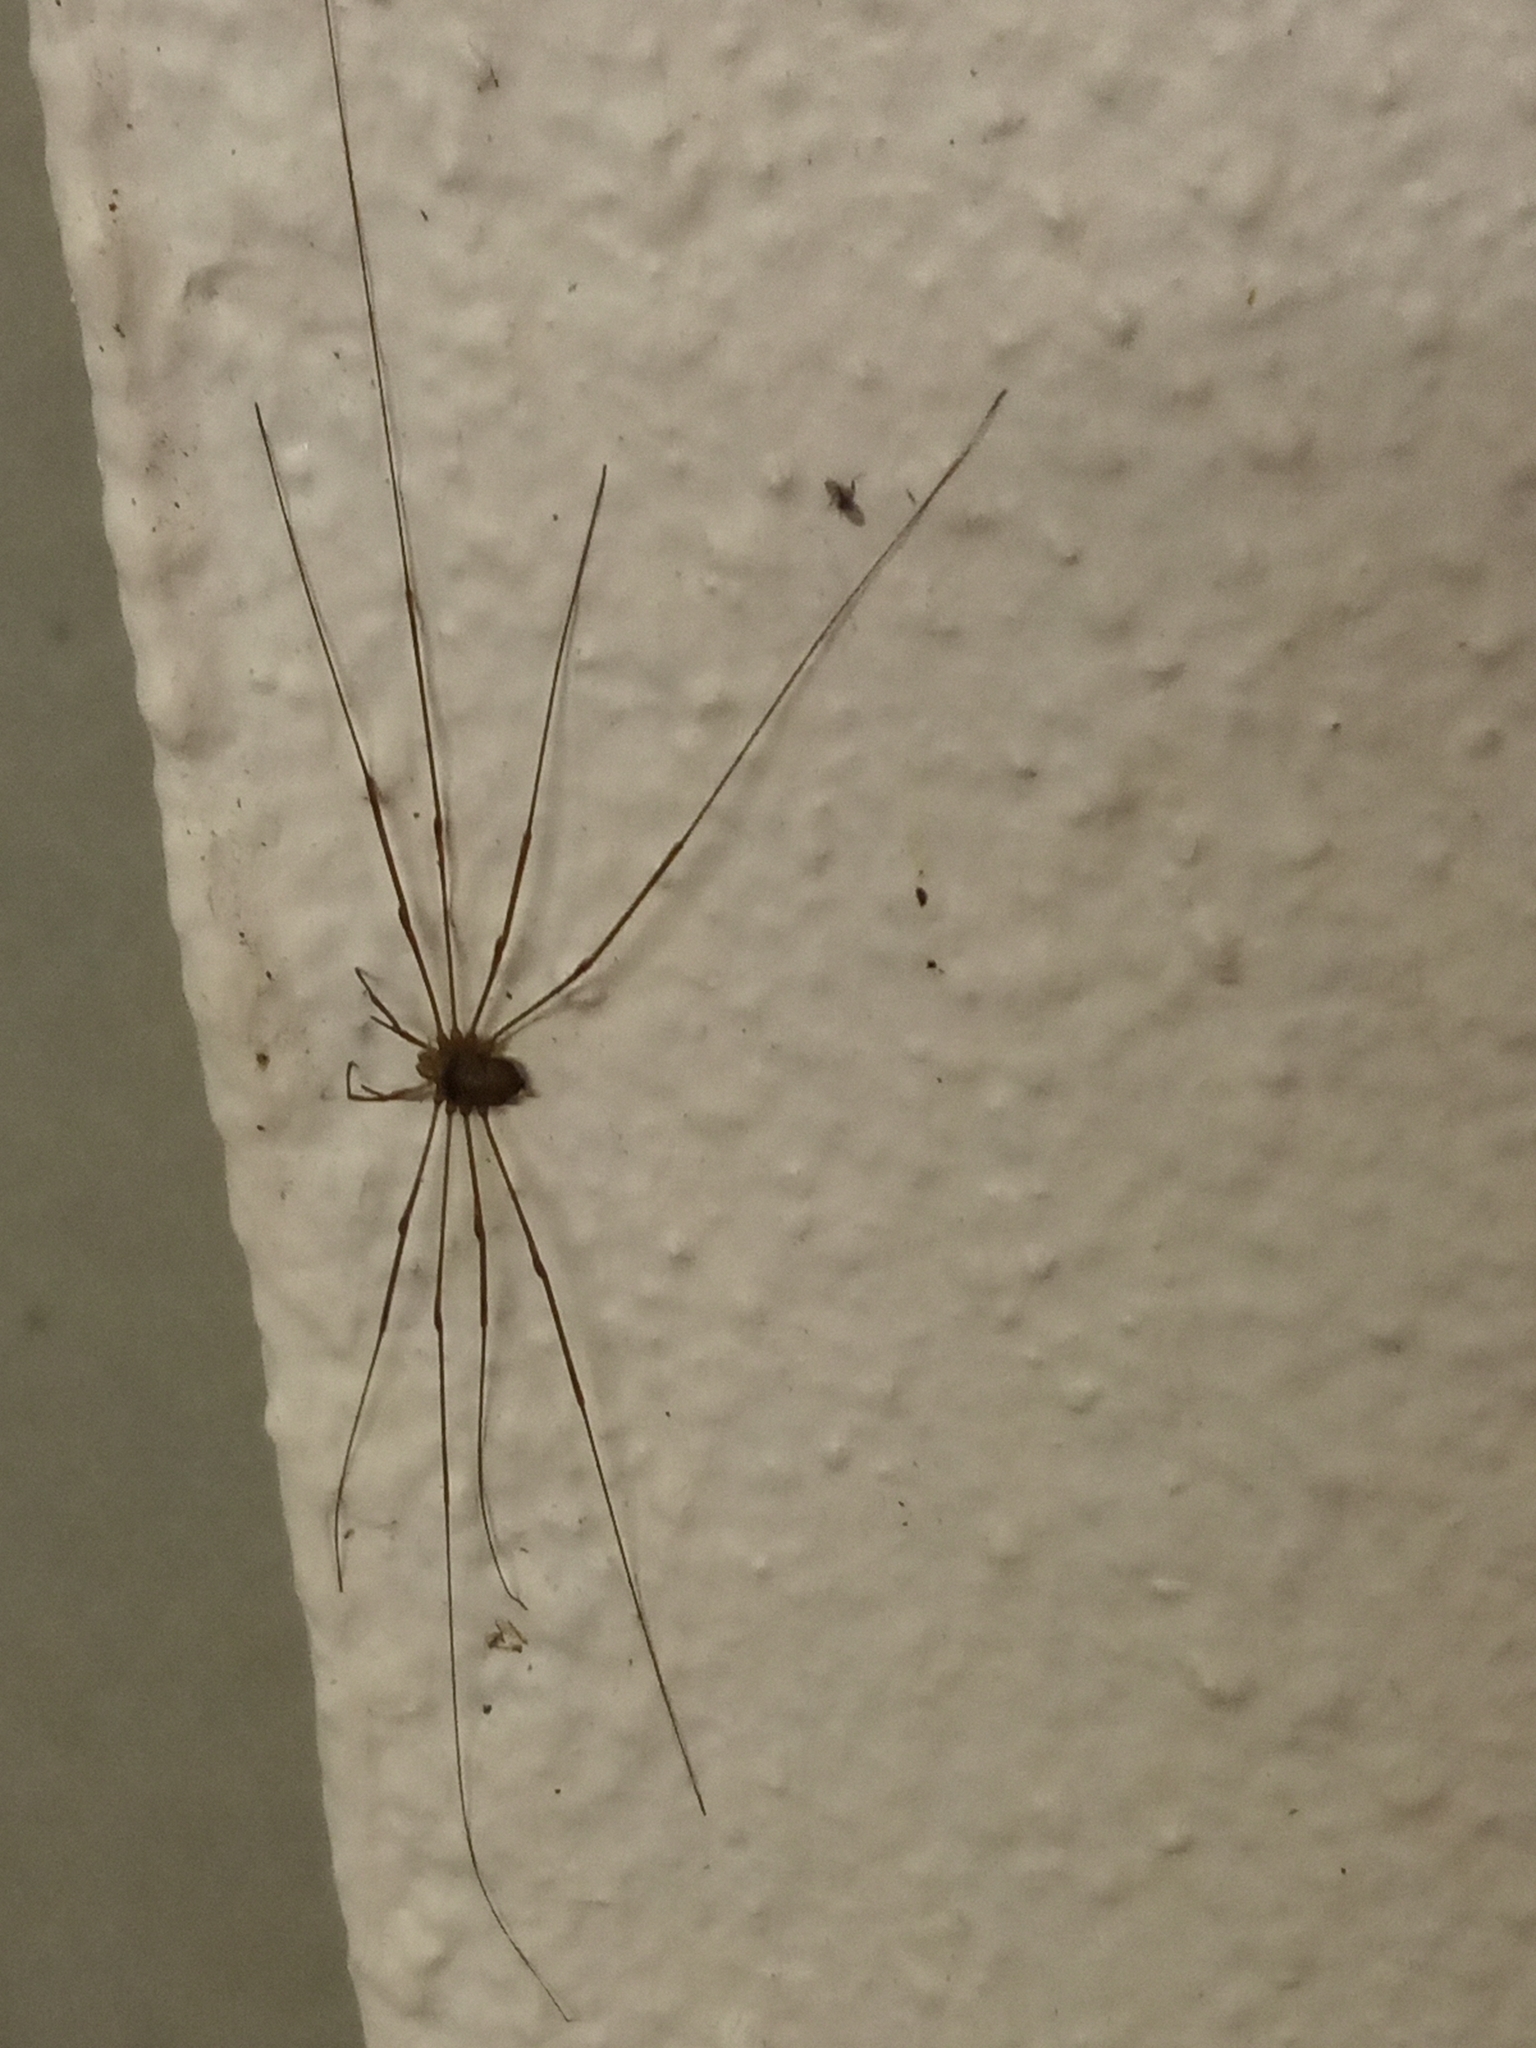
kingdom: Animalia
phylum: Arthropoda
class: Arachnida
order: Opiliones
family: Phalangiidae
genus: Dicranopalpus
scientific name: Dicranopalpus
